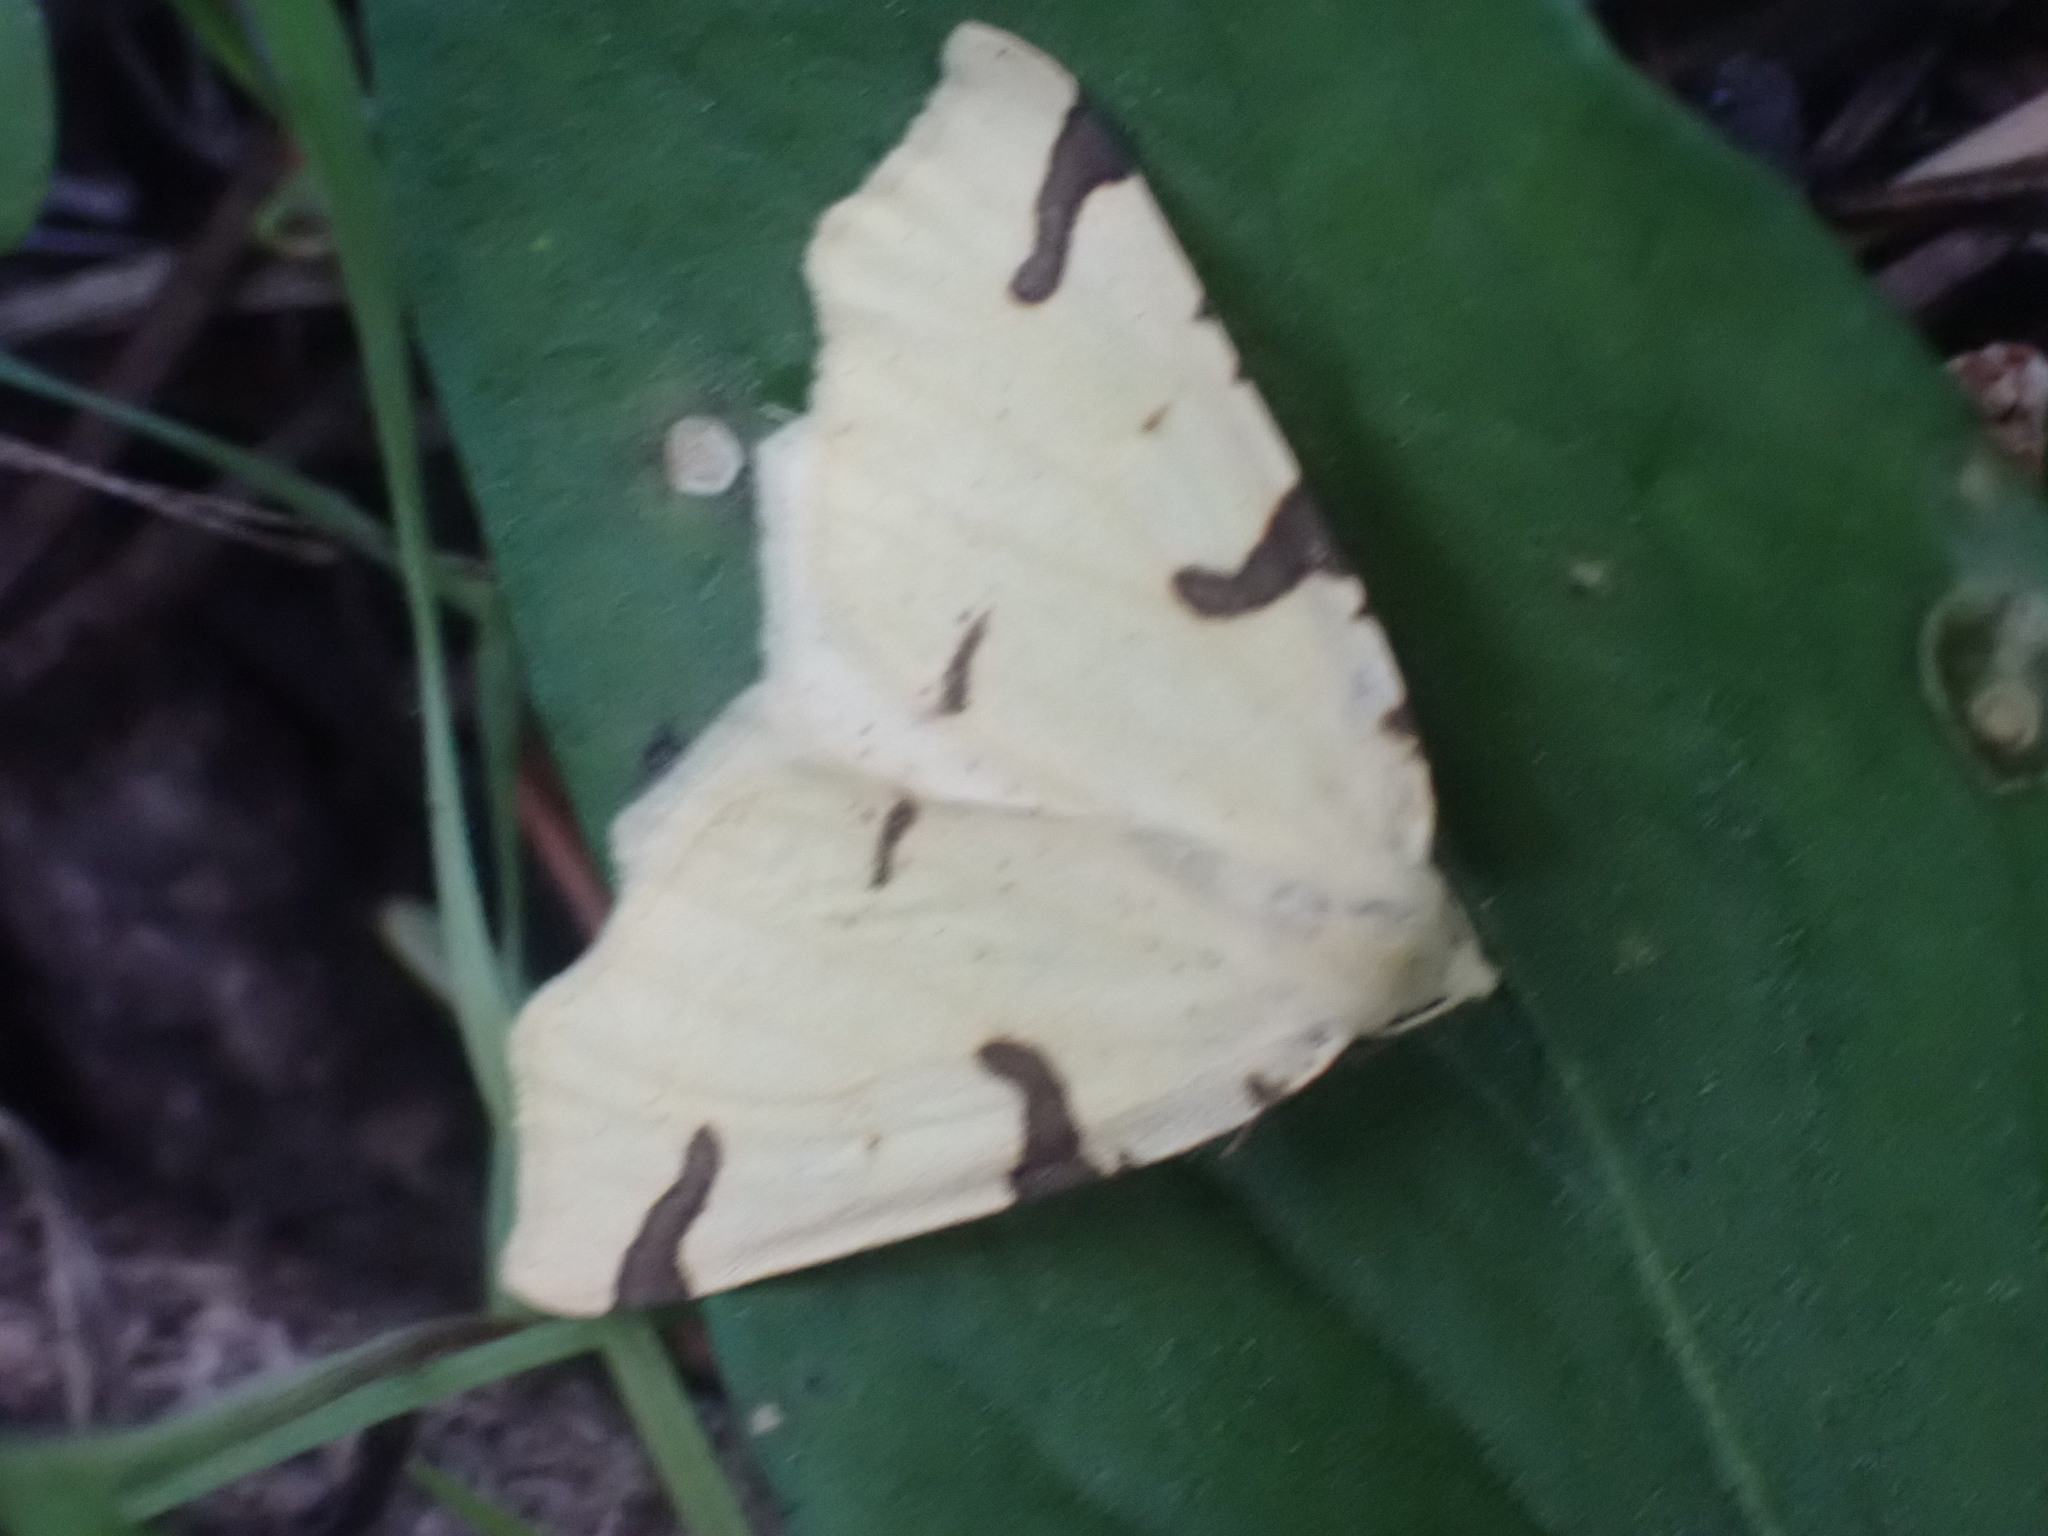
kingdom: Animalia
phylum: Arthropoda
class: Insecta
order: Lepidoptera
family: Geometridae
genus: Neoterpes
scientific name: Neoterpes trianguliferata
